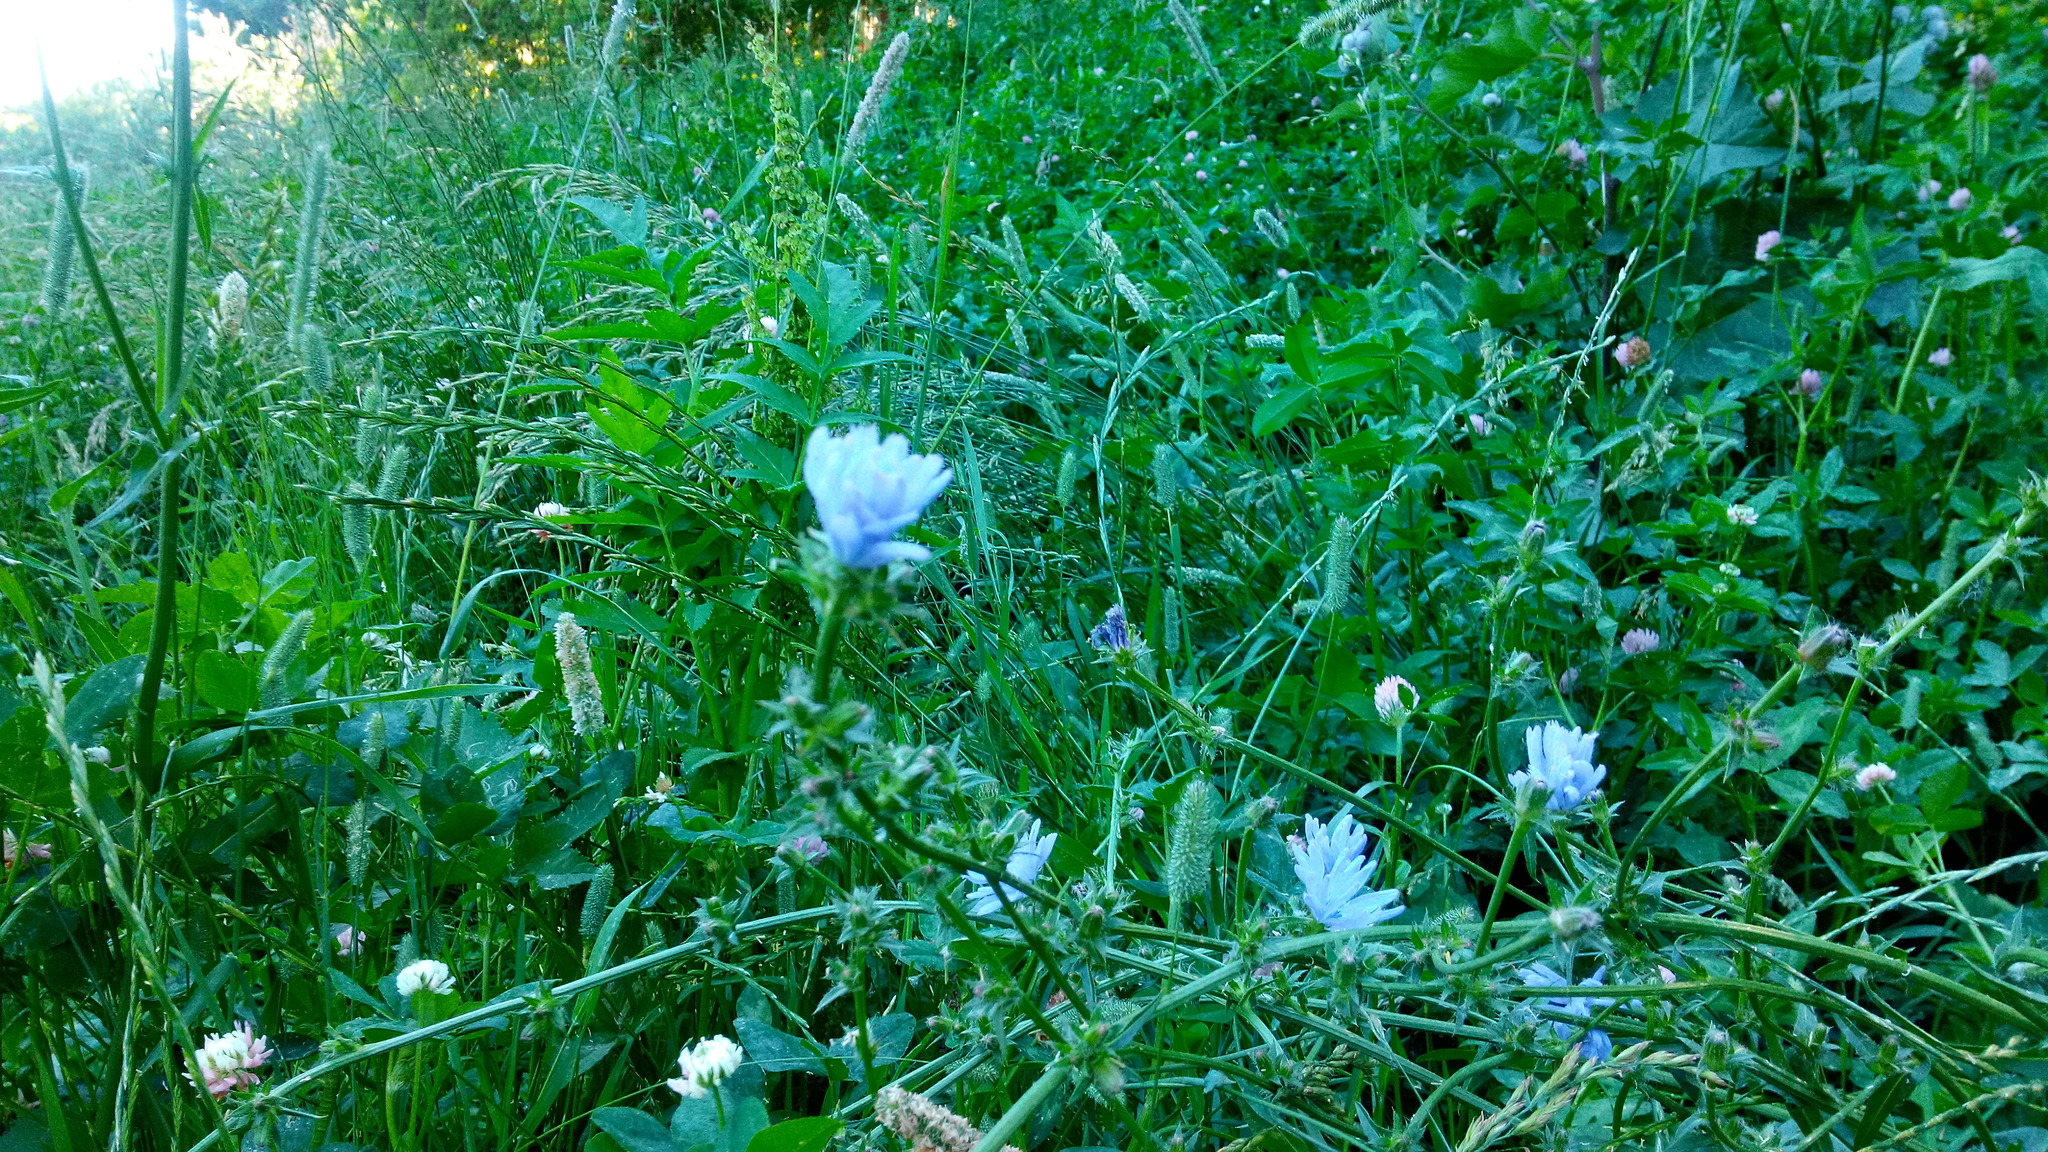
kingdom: Plantae
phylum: Tracheophyta
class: Magnoliopsida
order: Asterales
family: Asteraceae
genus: Cichorium
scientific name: Cichorium intybus
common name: Chicory
